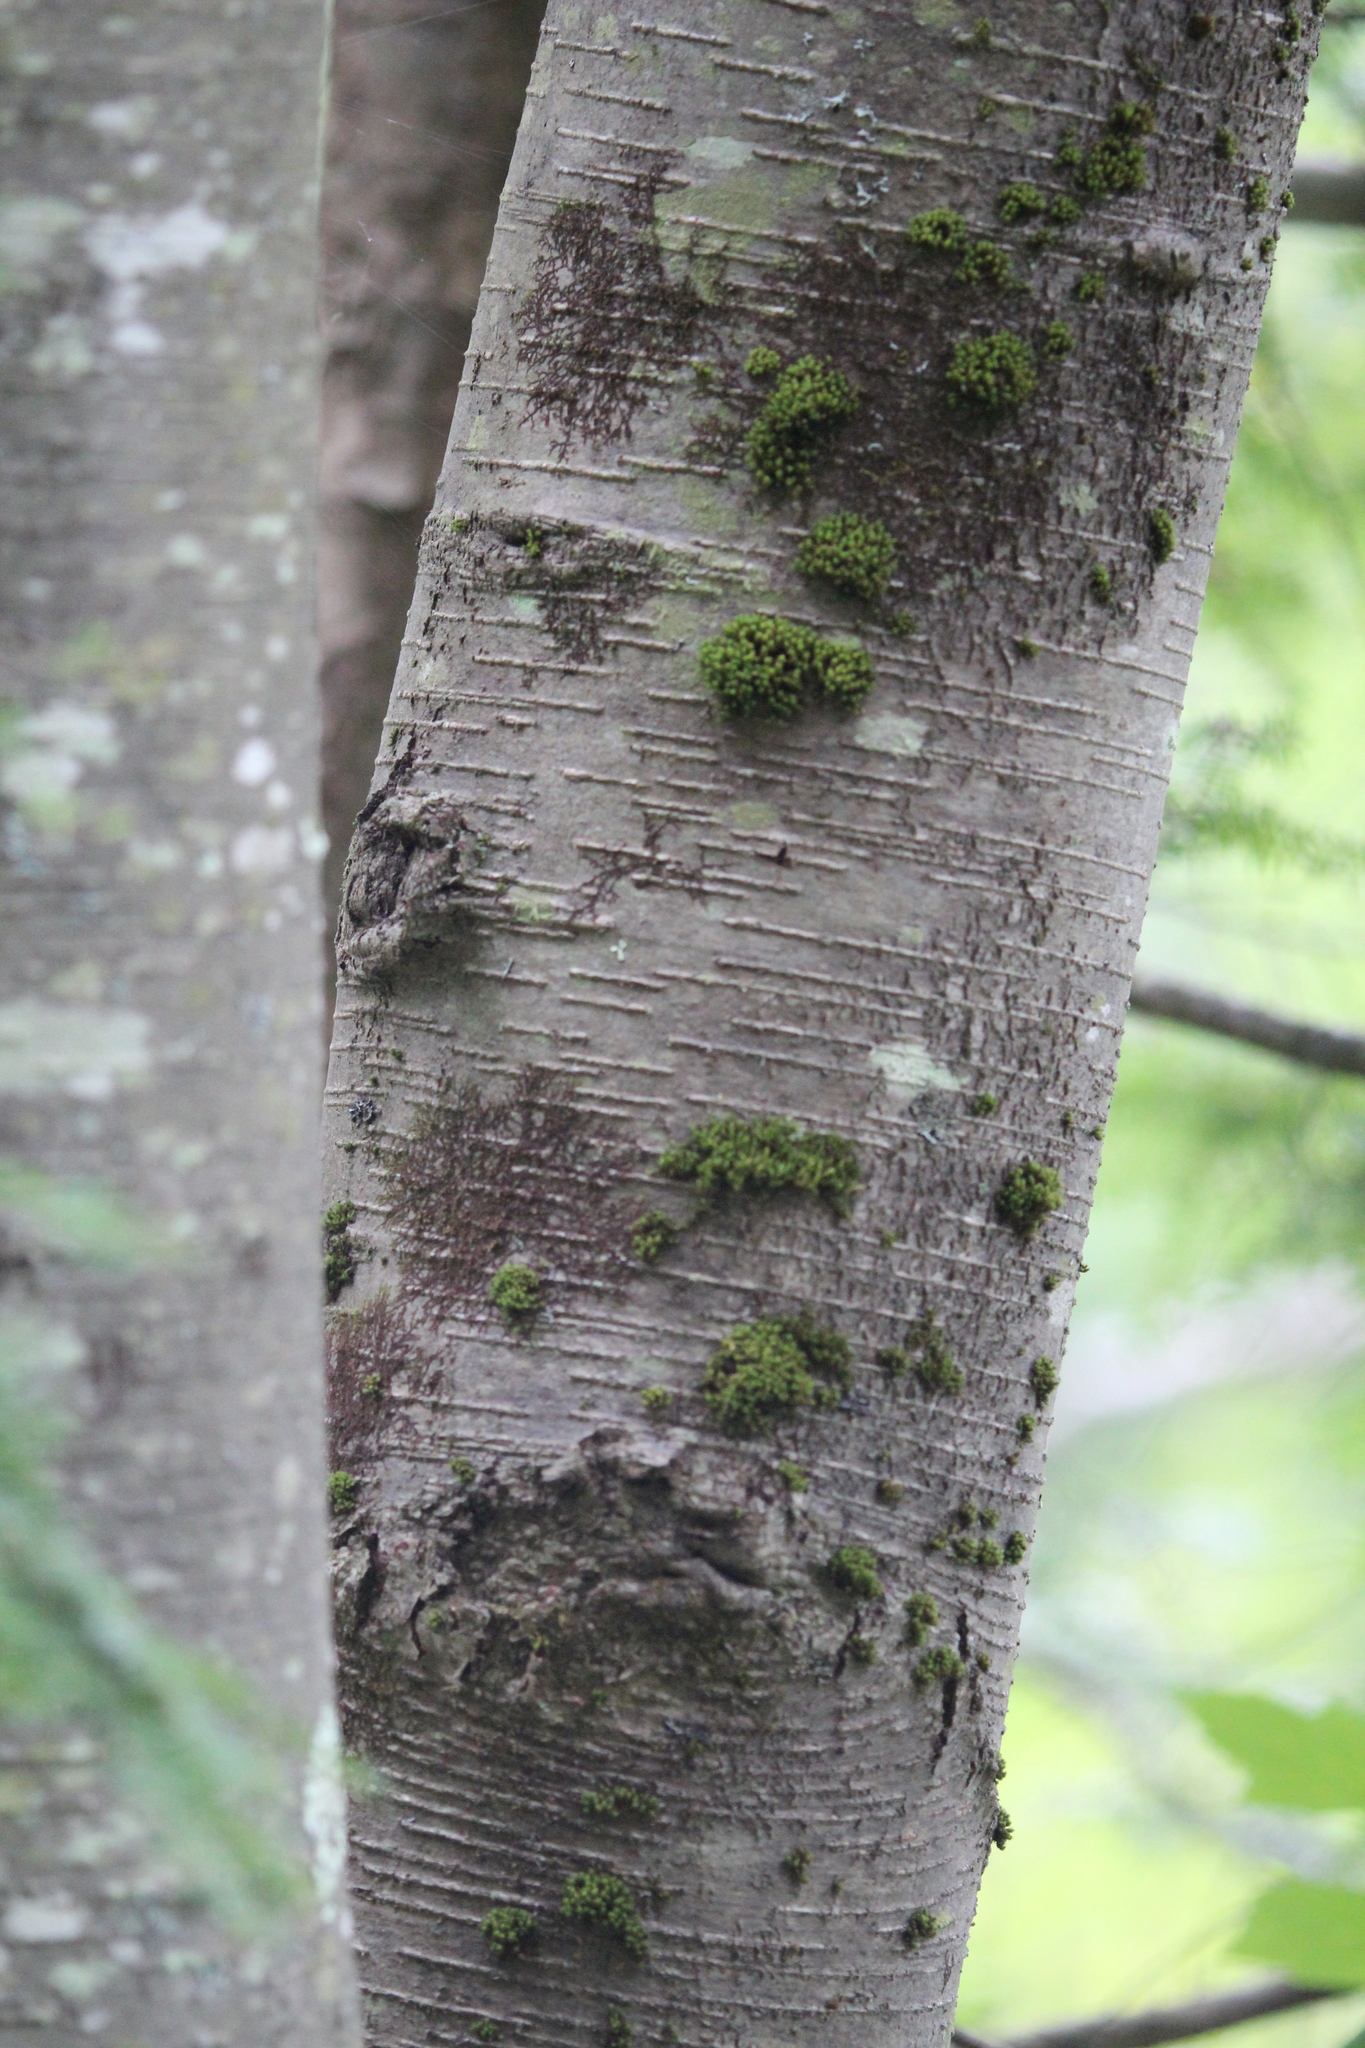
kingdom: Plantae
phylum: Tracheophyta
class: Magnoliopsida
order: Fagales
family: Betulaceae
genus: Betula
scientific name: Betula lenta
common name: Black birch
